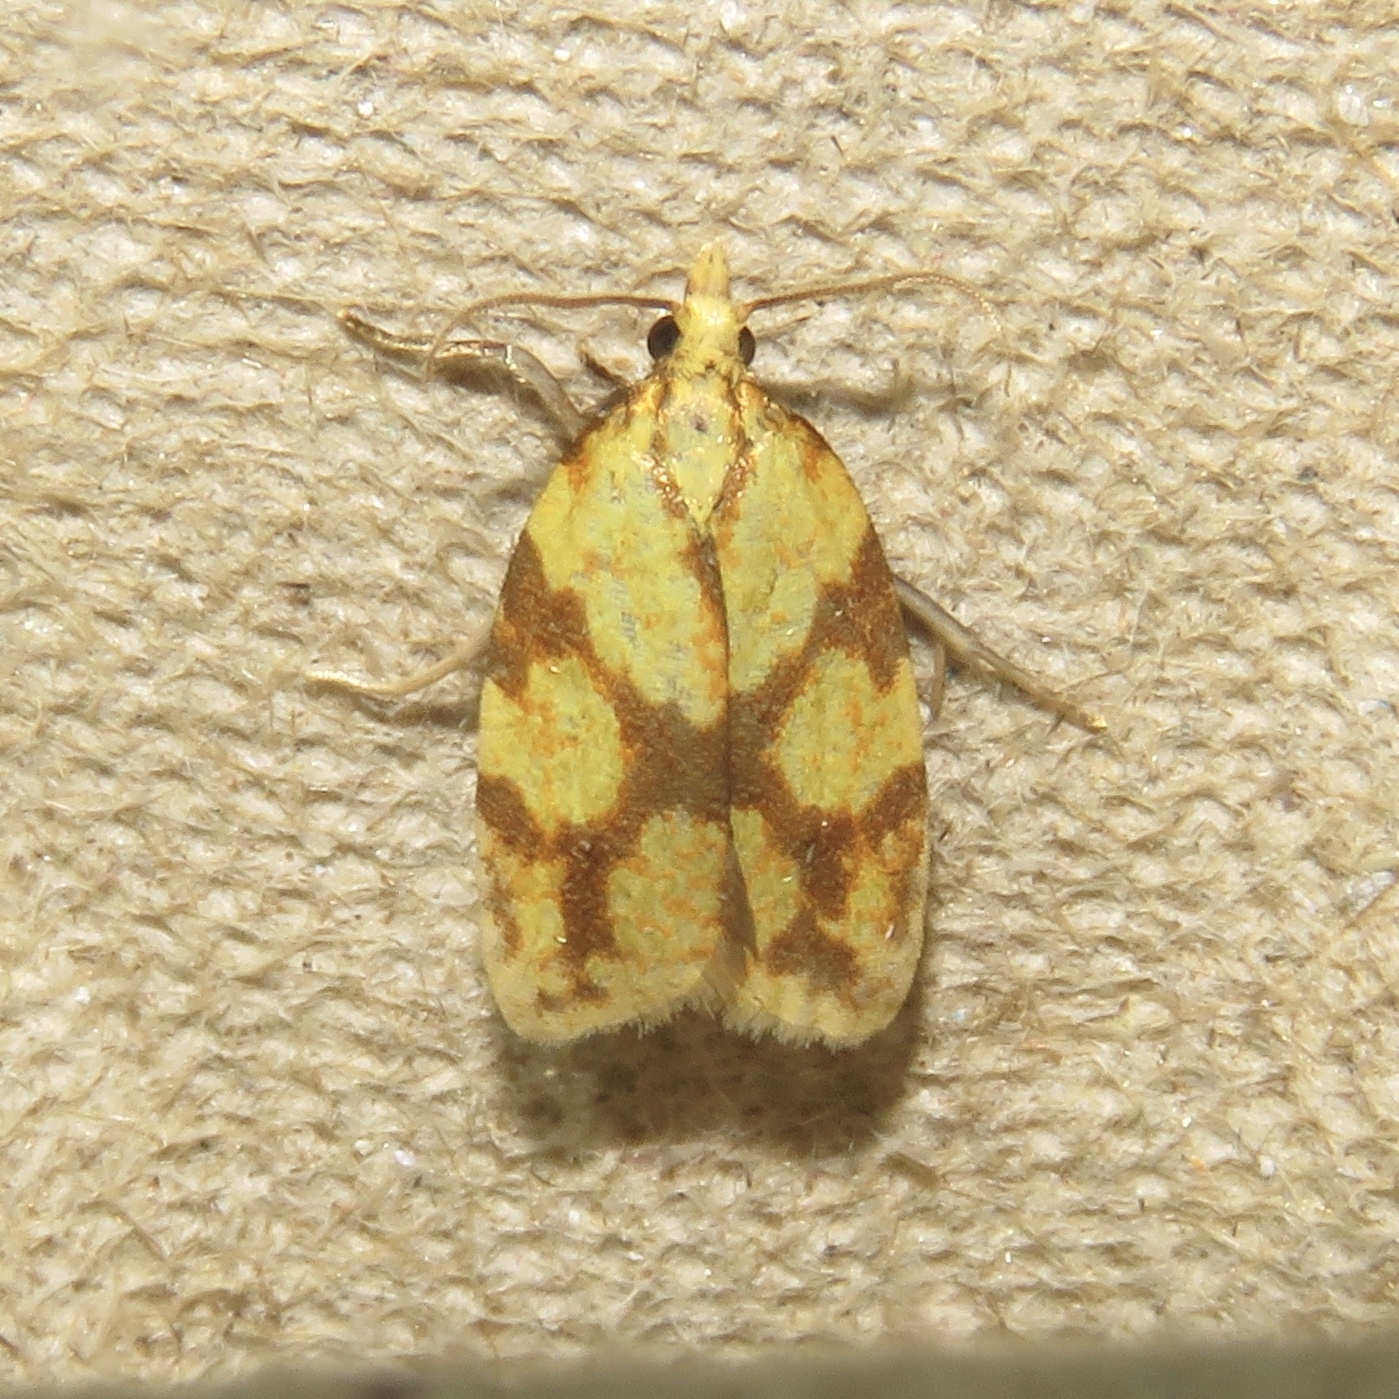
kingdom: Animalia
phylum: Arthropoda
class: Insecta
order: Lepidoptera
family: Tortricidae
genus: Sparganothis
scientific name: Sparganothis sulfureana
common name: Sparganothis fruitworm moth
